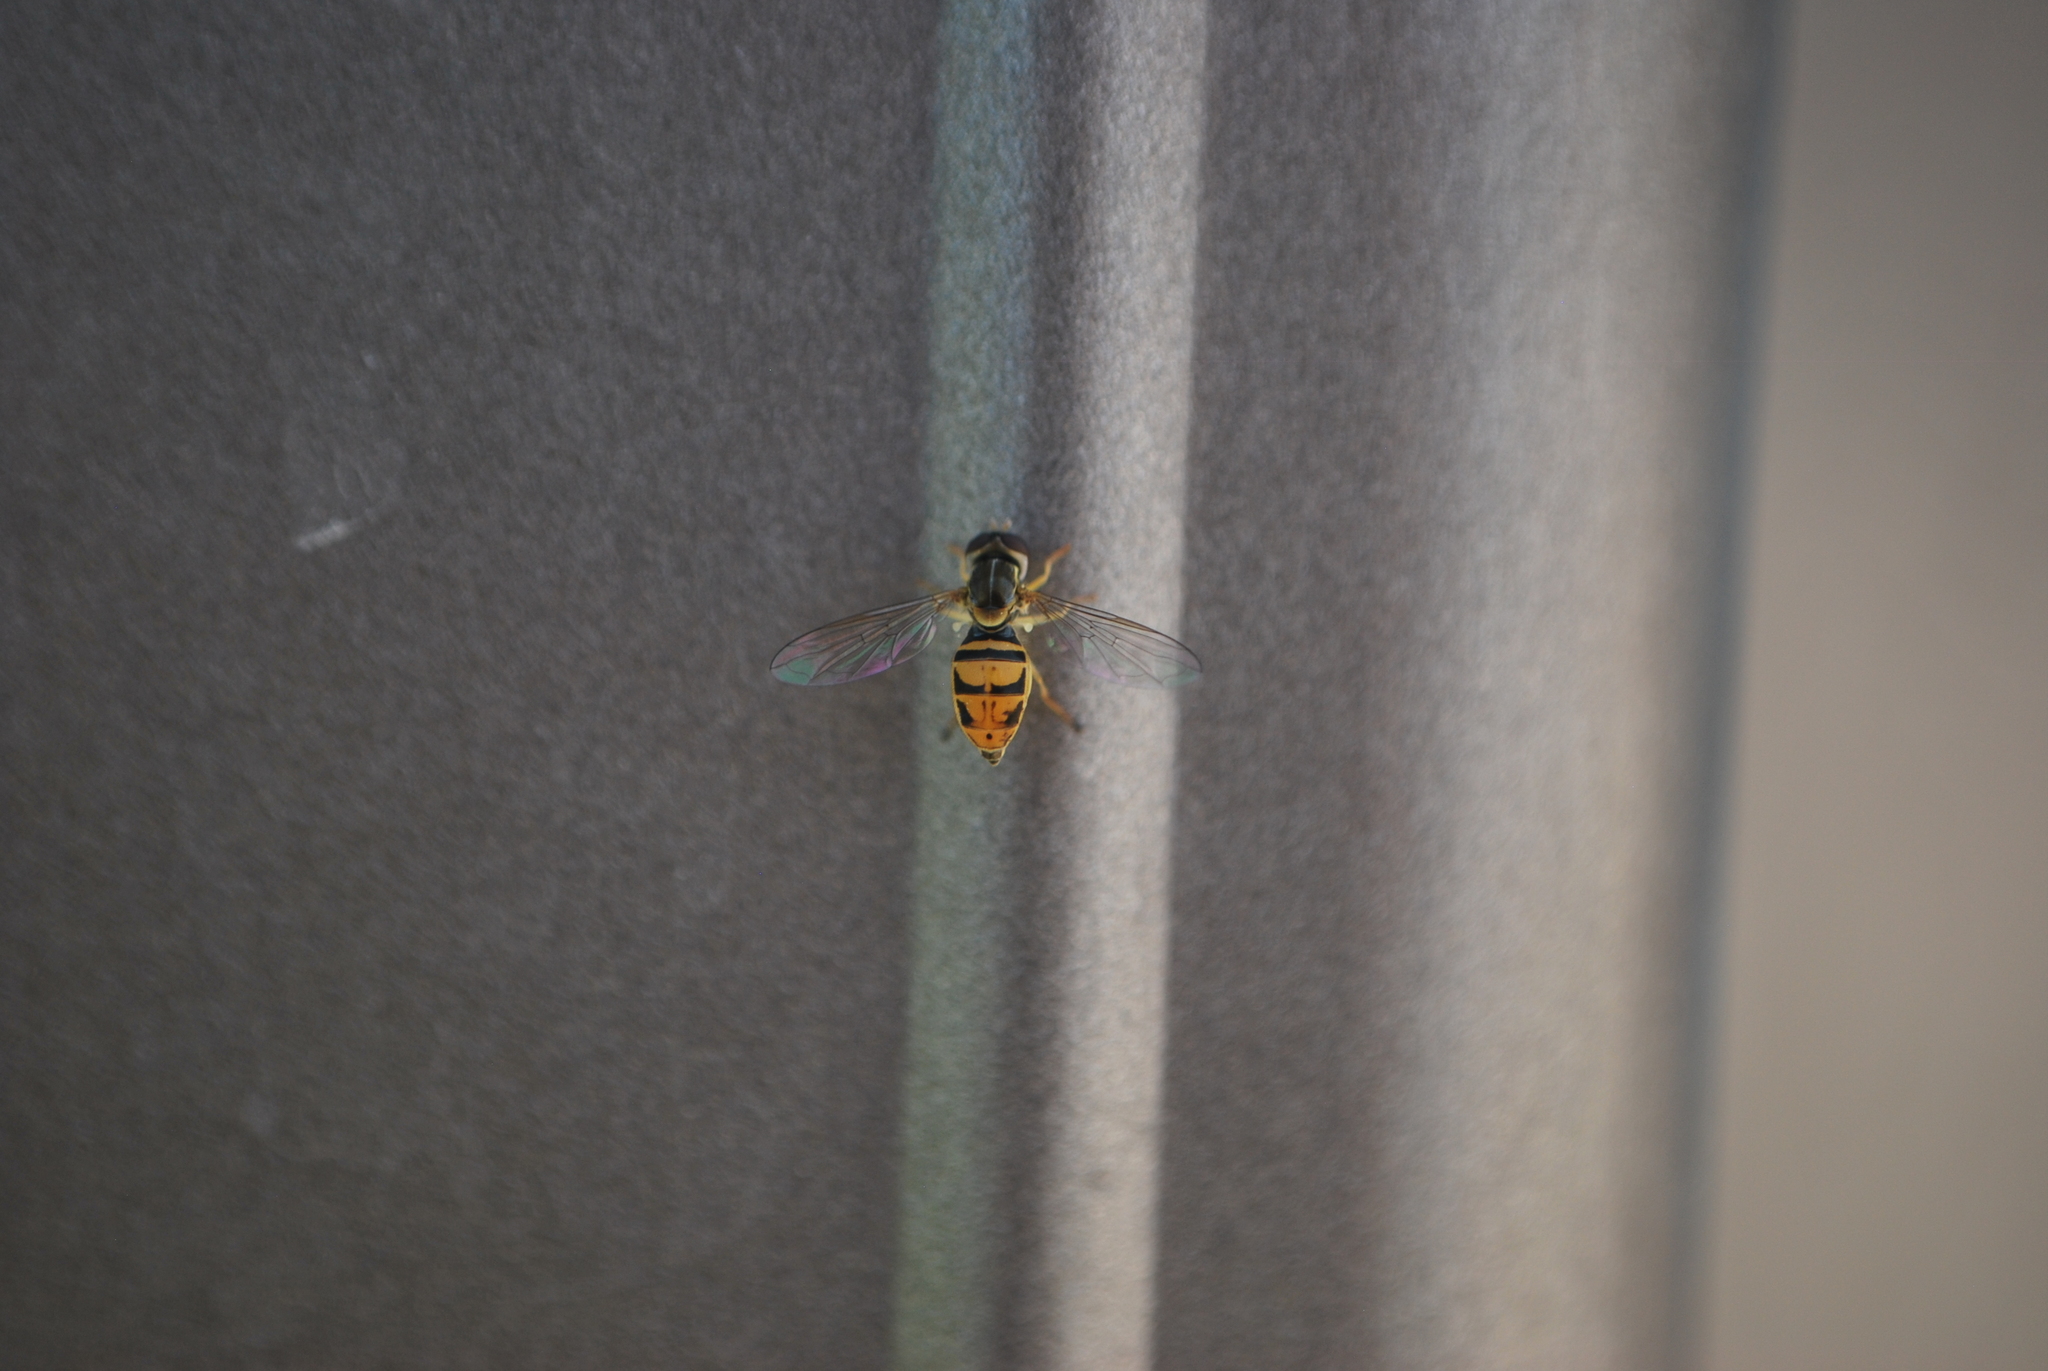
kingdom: Animalia
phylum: Arthropoda
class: Insecta
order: Diptera
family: Syrphidae
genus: Toxomerus
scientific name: Toxomerus marginatus
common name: Syrphid fly
